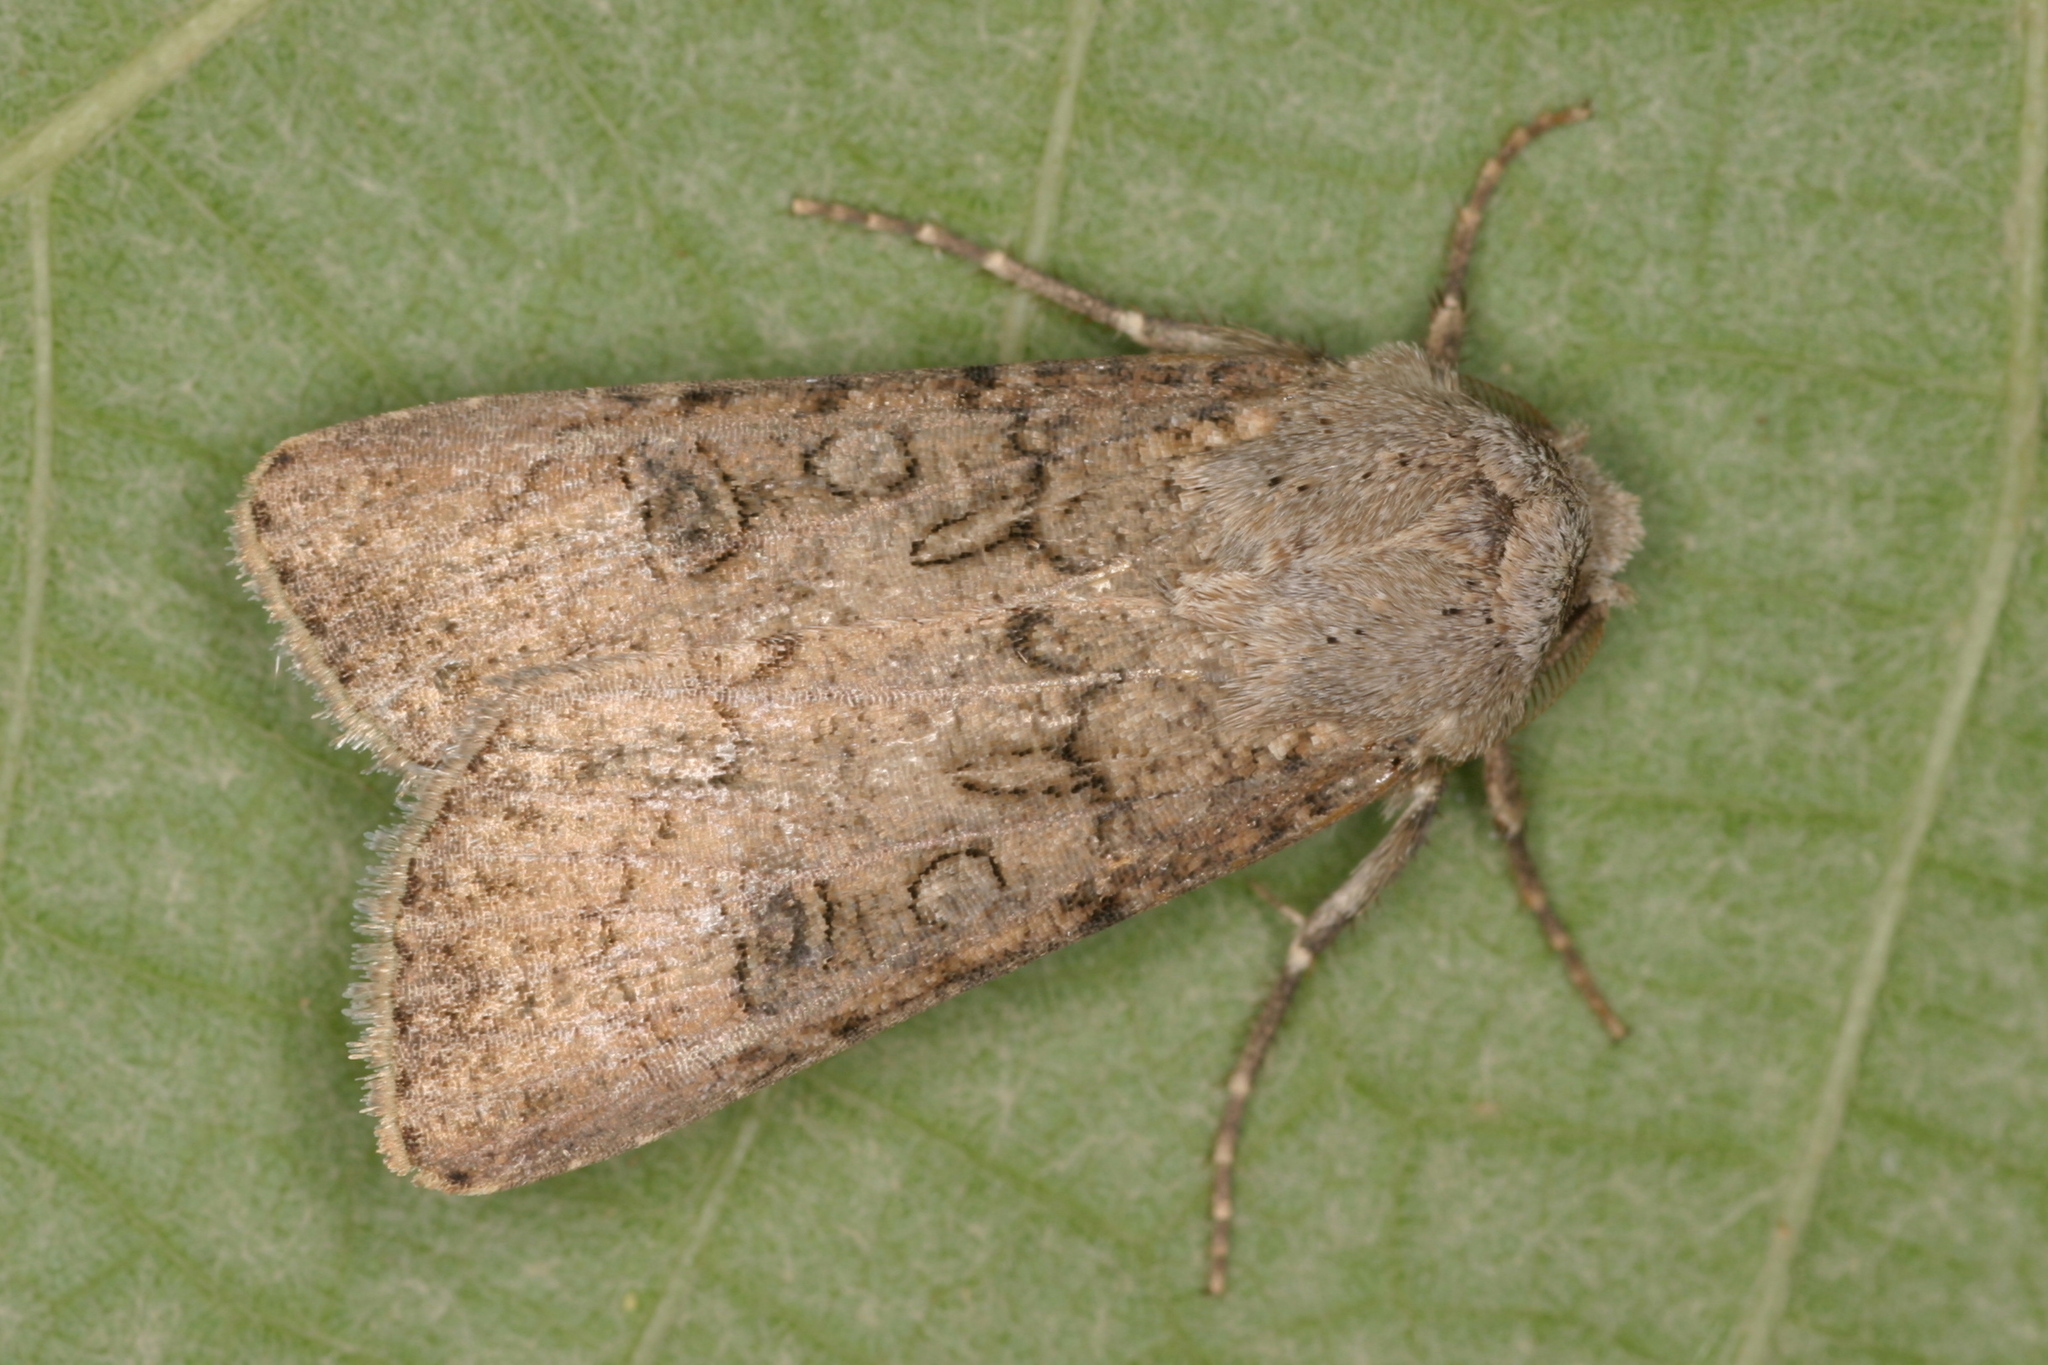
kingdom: Animalia
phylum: Arthropoda
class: Insecta
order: Lepidoptera
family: Noctuidae
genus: Agrotis
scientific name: Agrotis segetum
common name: Turnip moth
